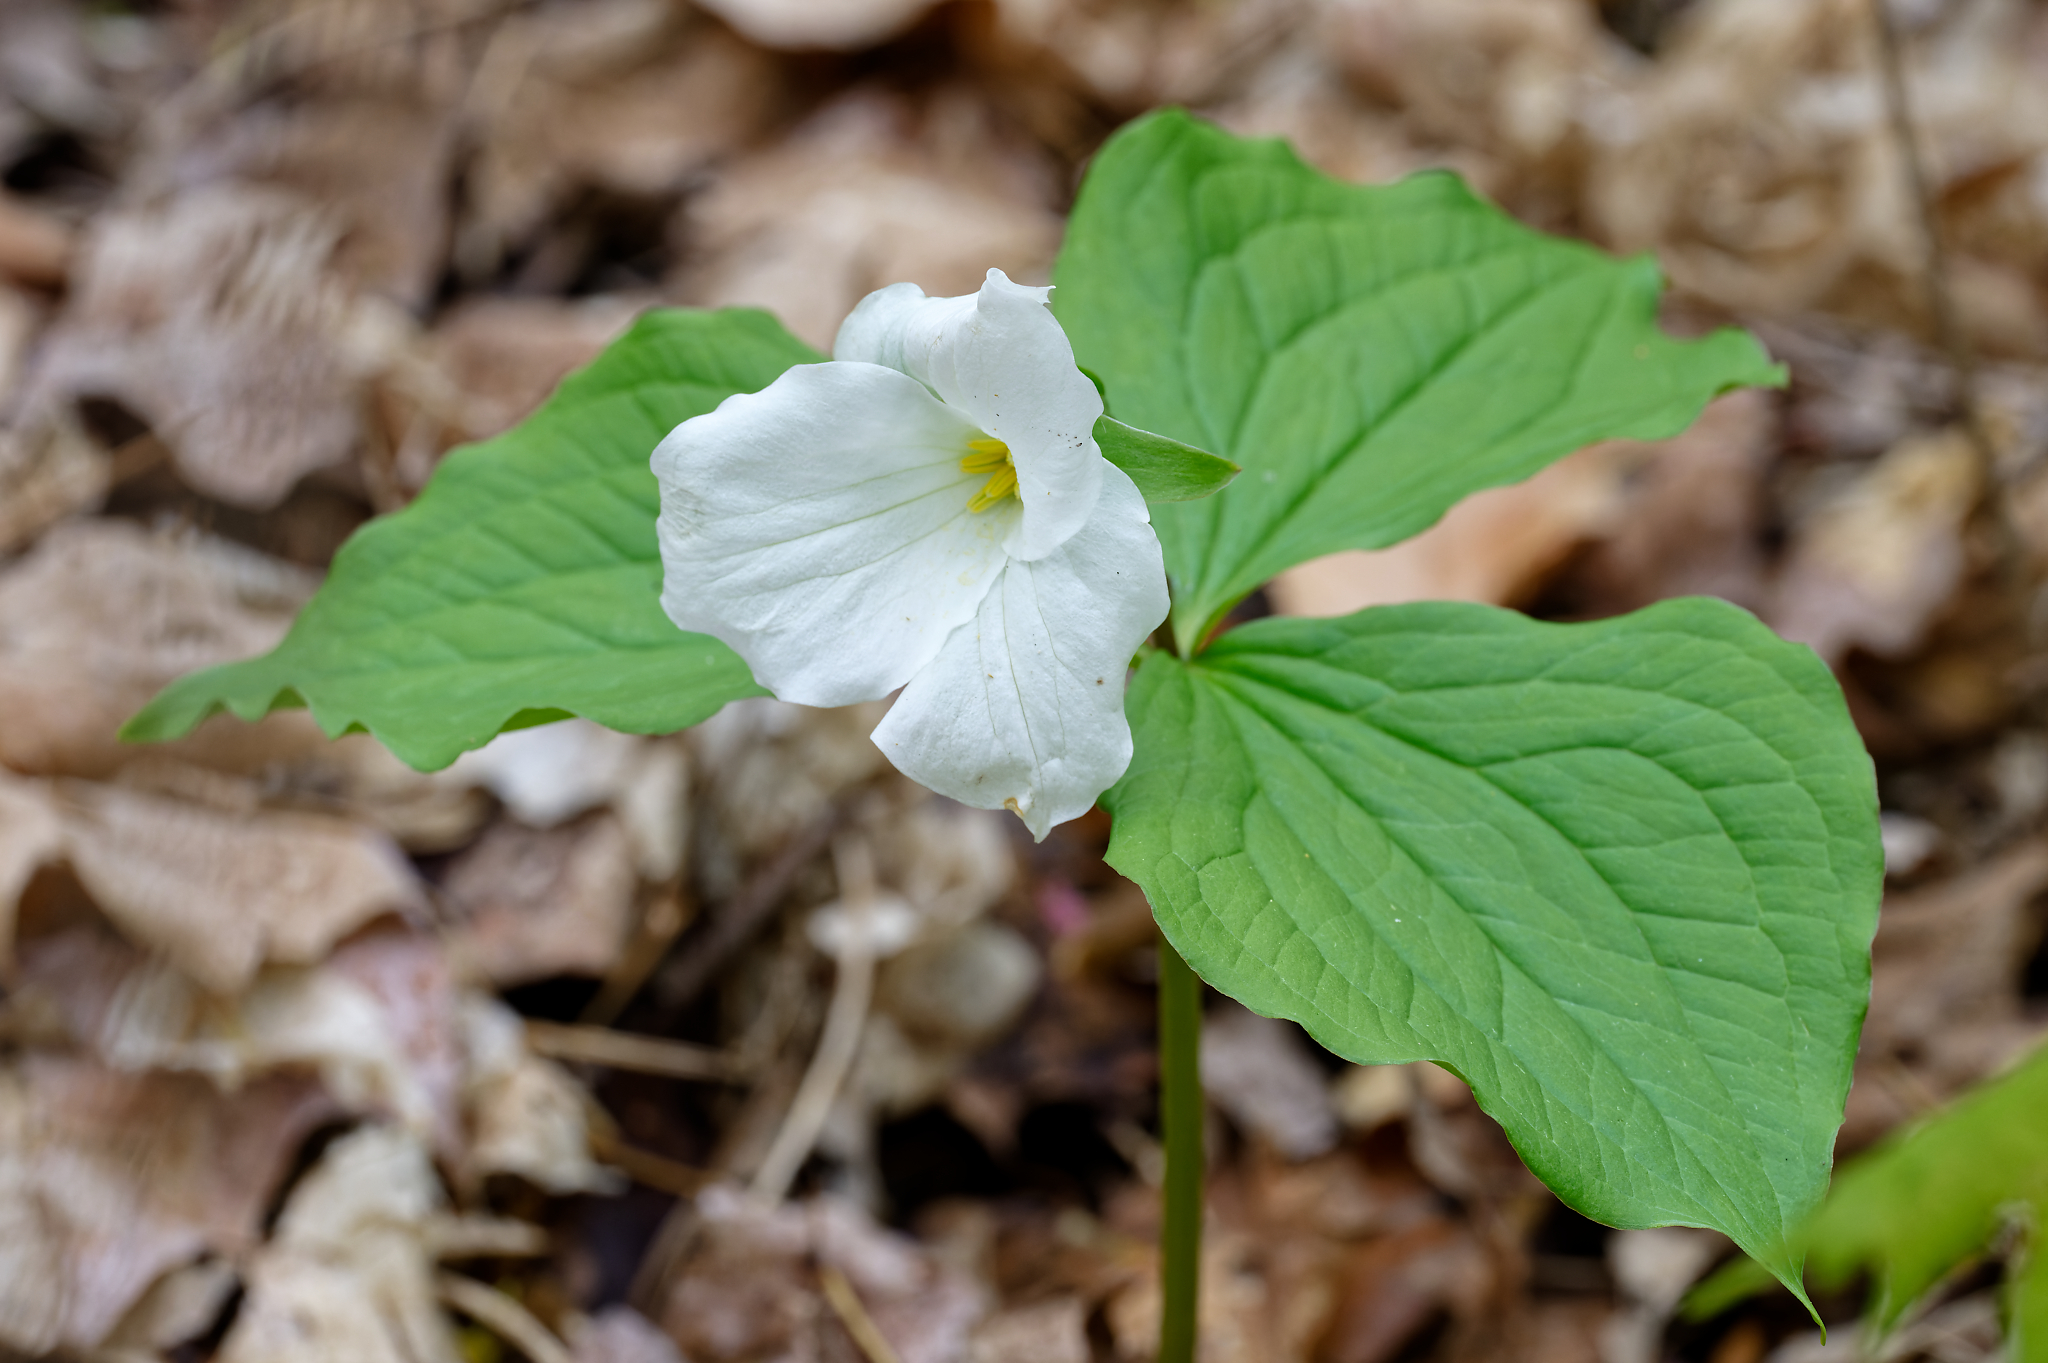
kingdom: Plantae
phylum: Tracheophyta
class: Liliopsida
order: Liliales
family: Melanthiaceae
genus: Trillium
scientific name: Trillium grandiflorum
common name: Great white trillium
